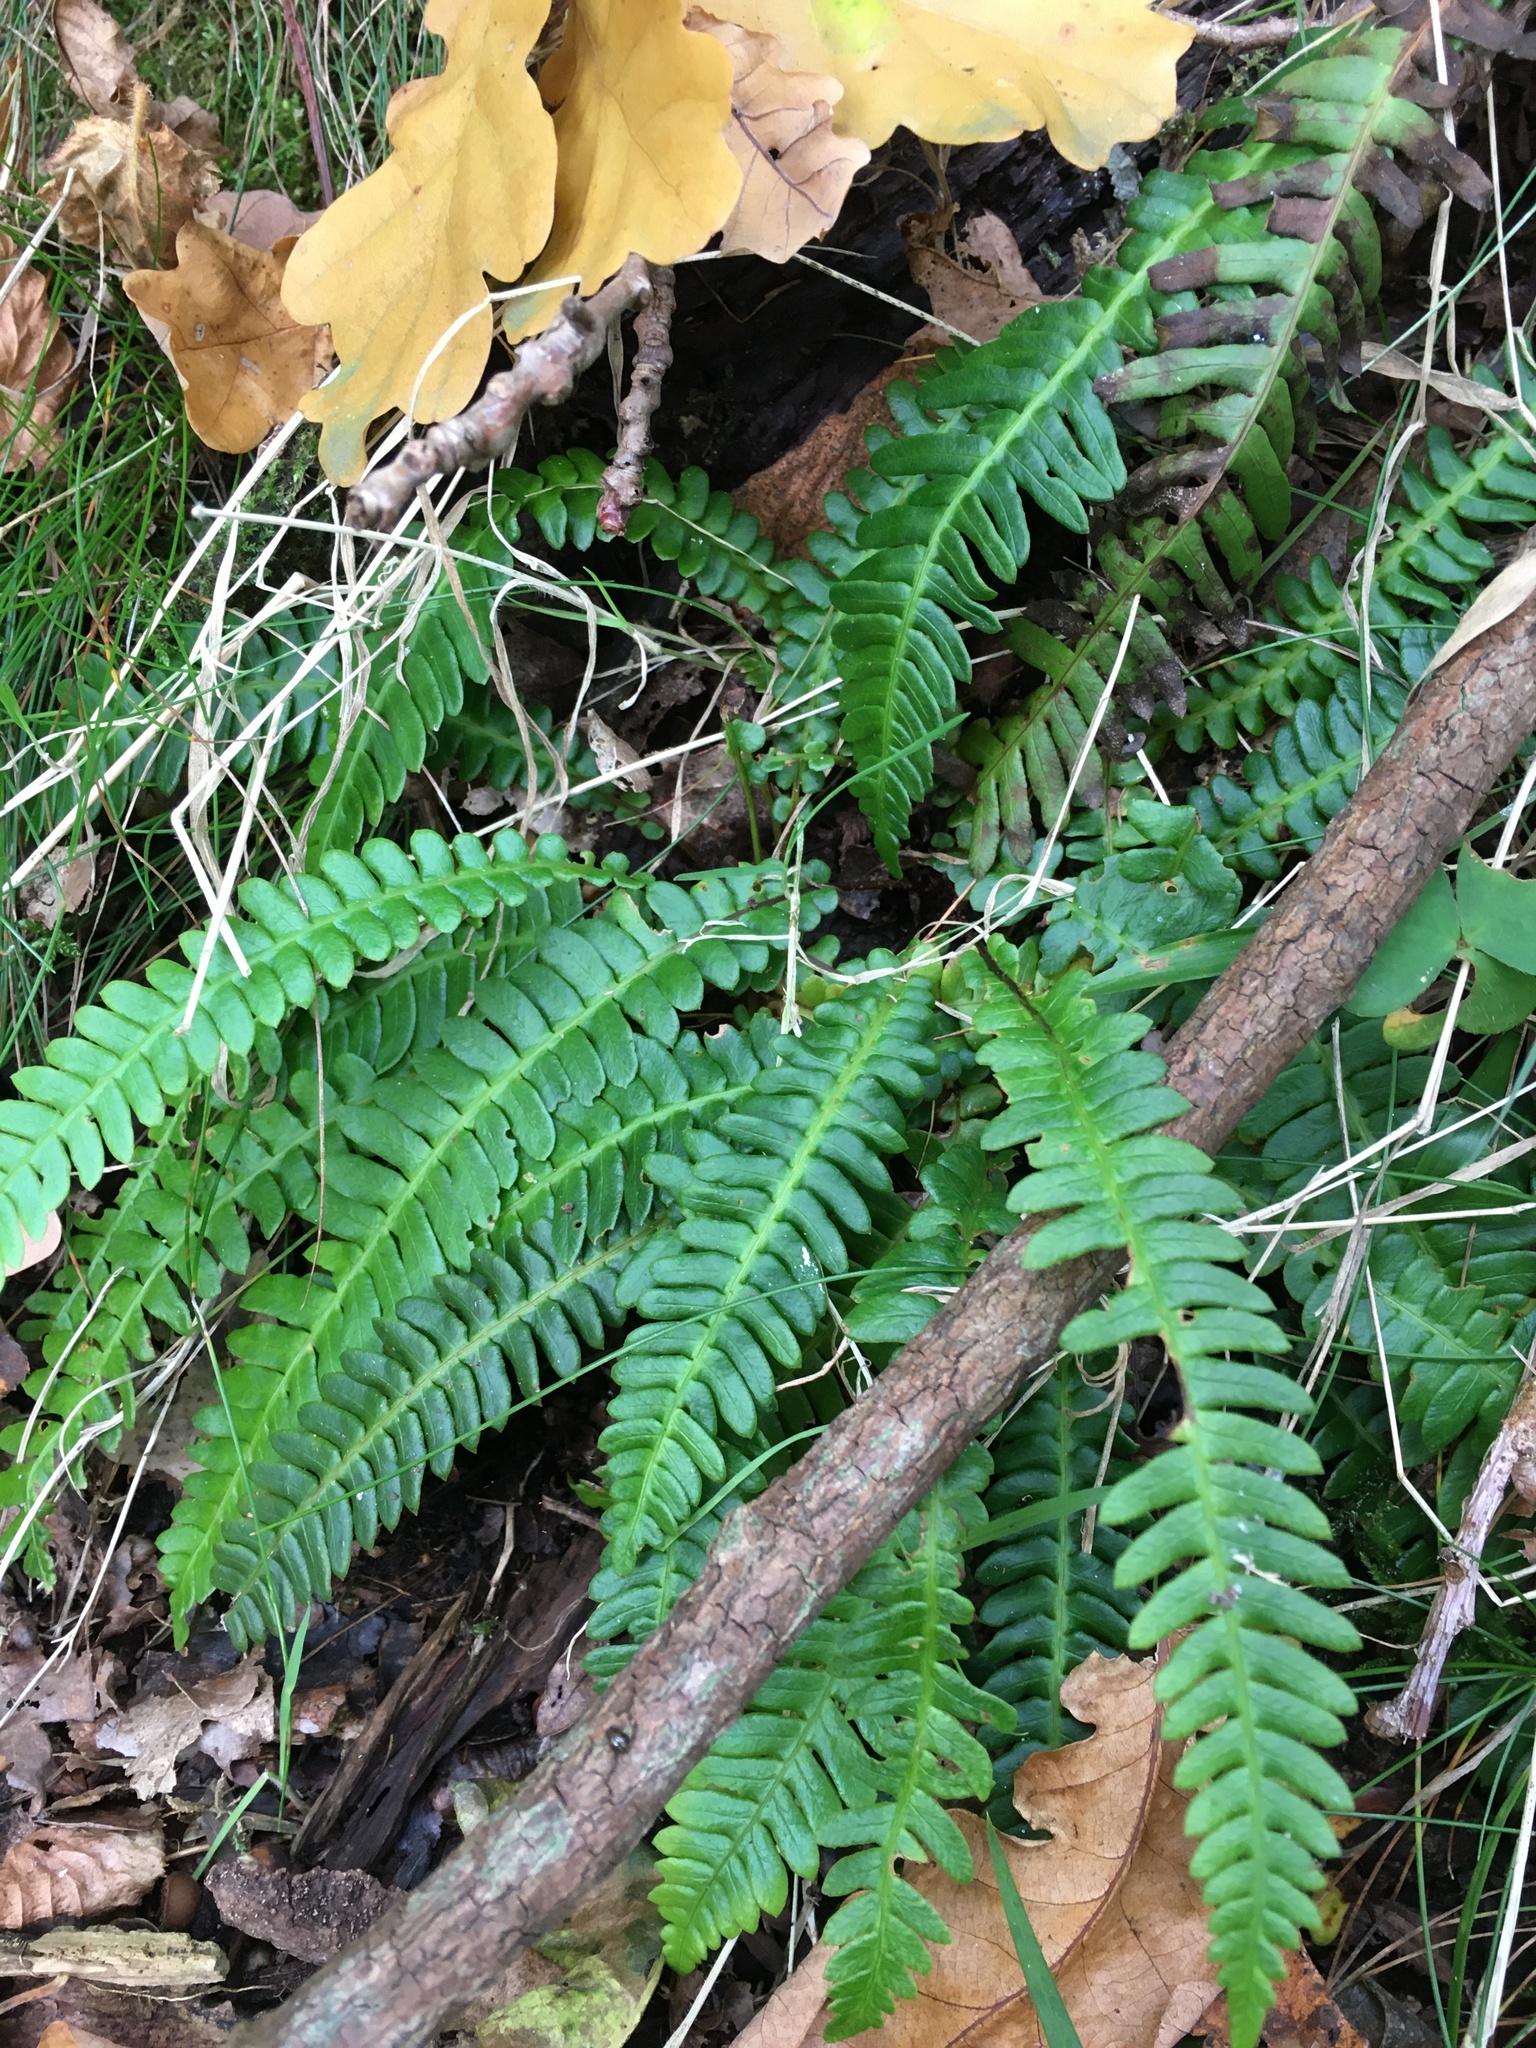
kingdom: Plantae
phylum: Tracheophyta
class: Polypodiopsida
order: Polypodiales
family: Blechnaceae
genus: Struthiopteris
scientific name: Struthiopteris spicant
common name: Deer fern
